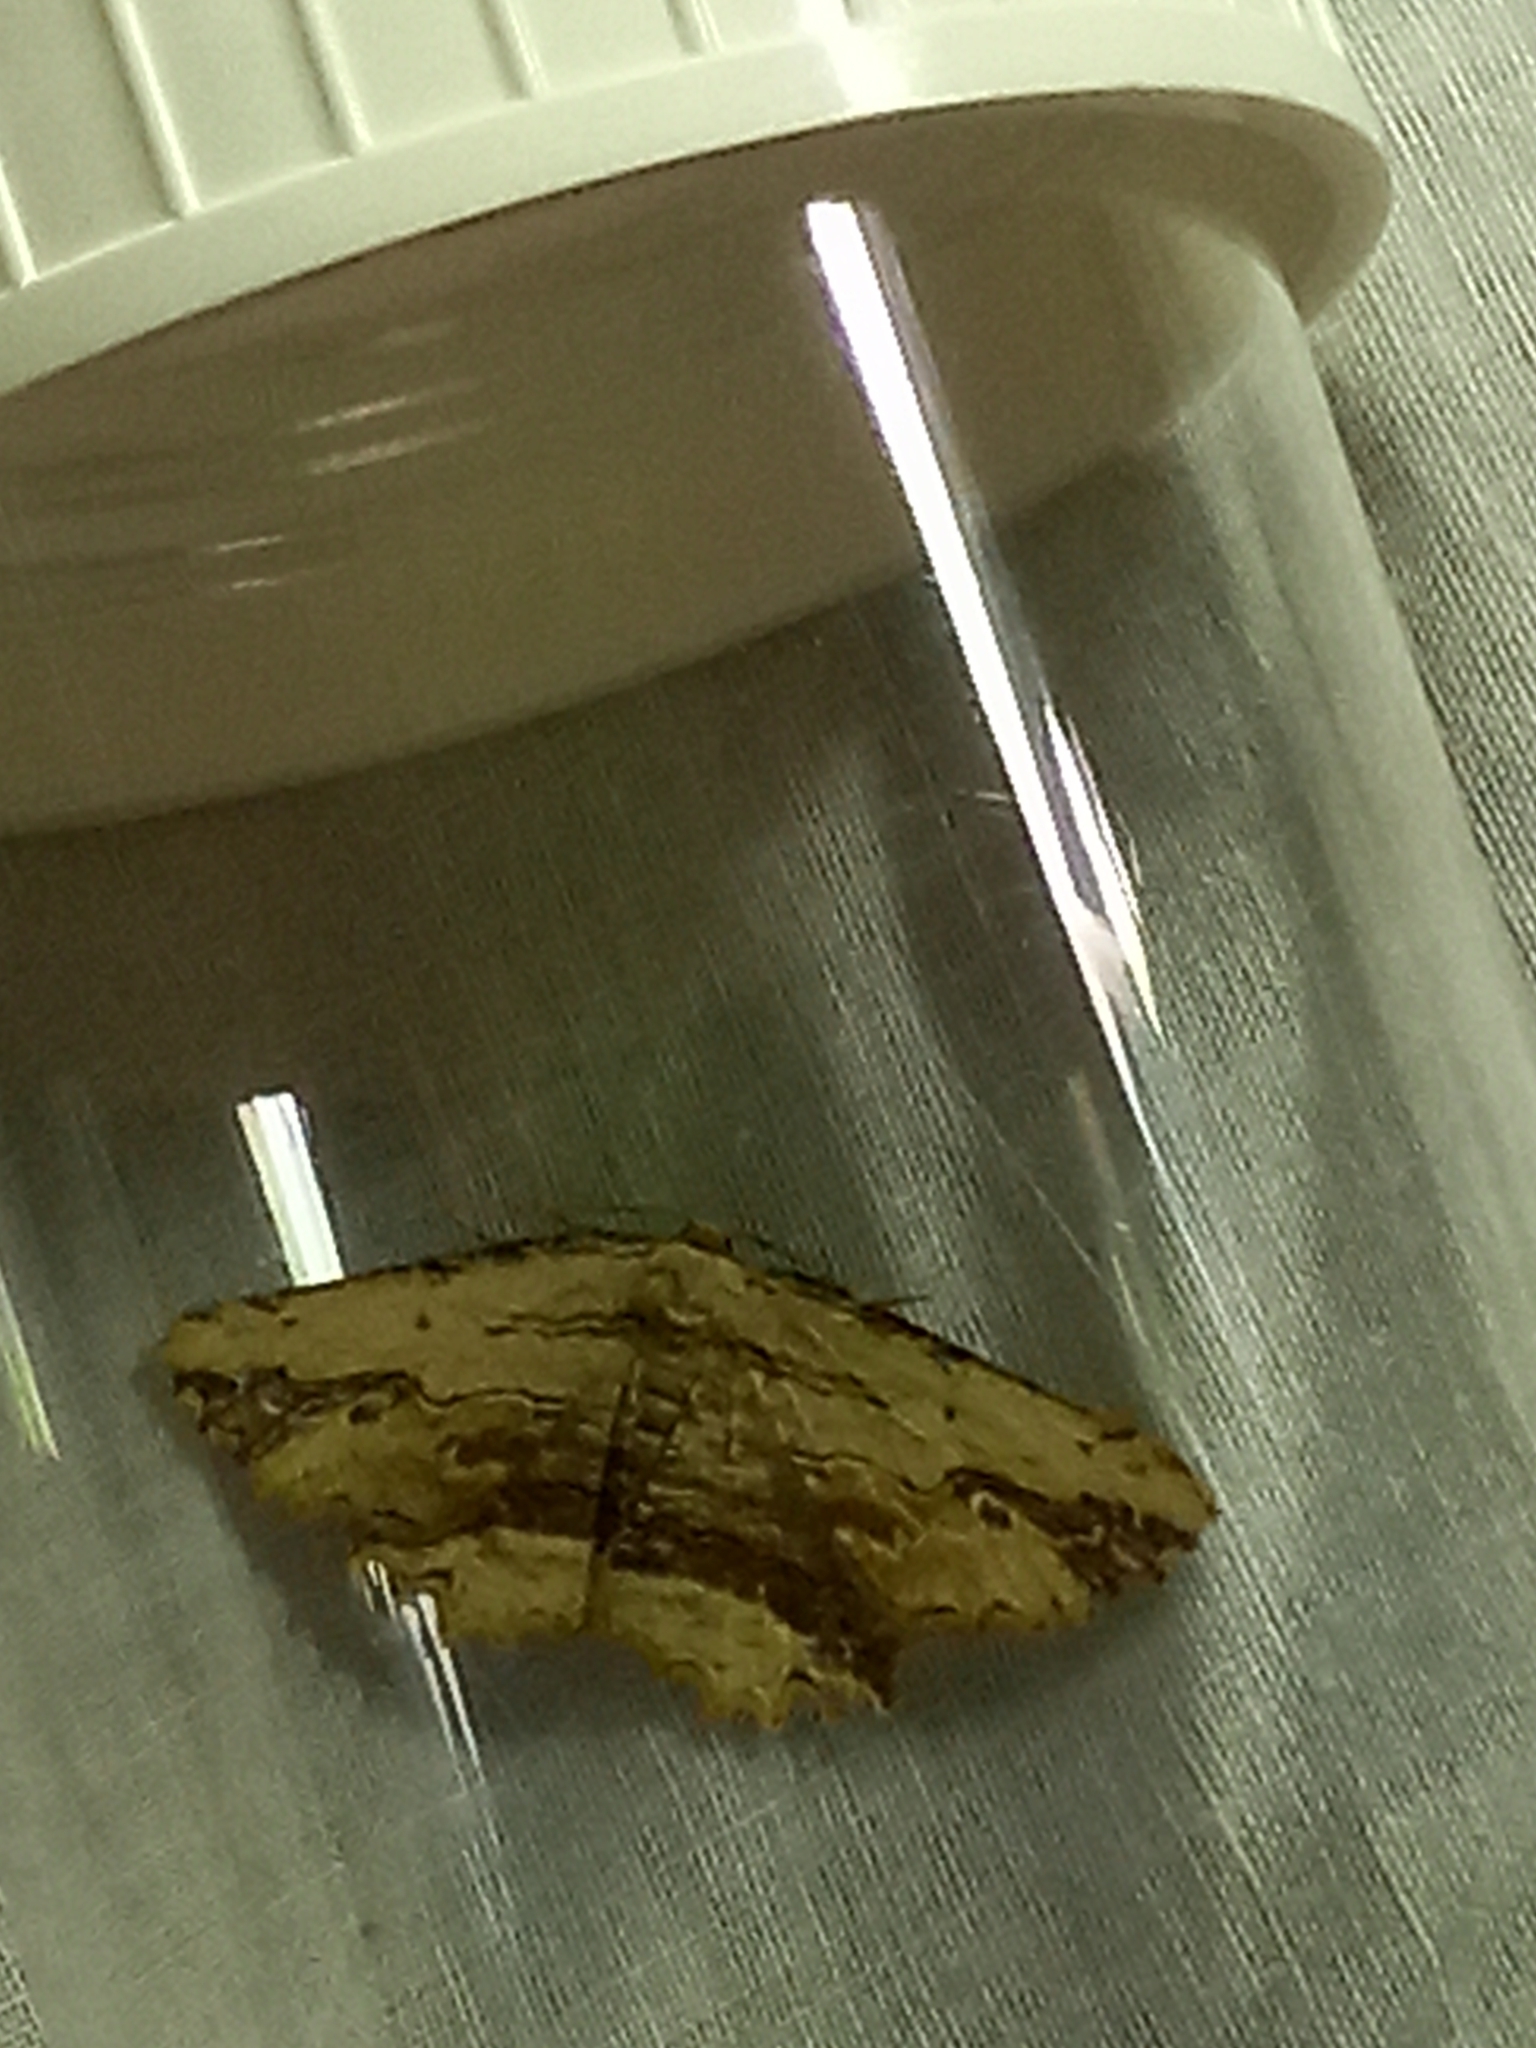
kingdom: Animalia
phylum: Arthropoda
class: Insecta
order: Lepidoptera
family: Geometridae
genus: Menophra
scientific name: Menophra abruptaria
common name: Waved umber
